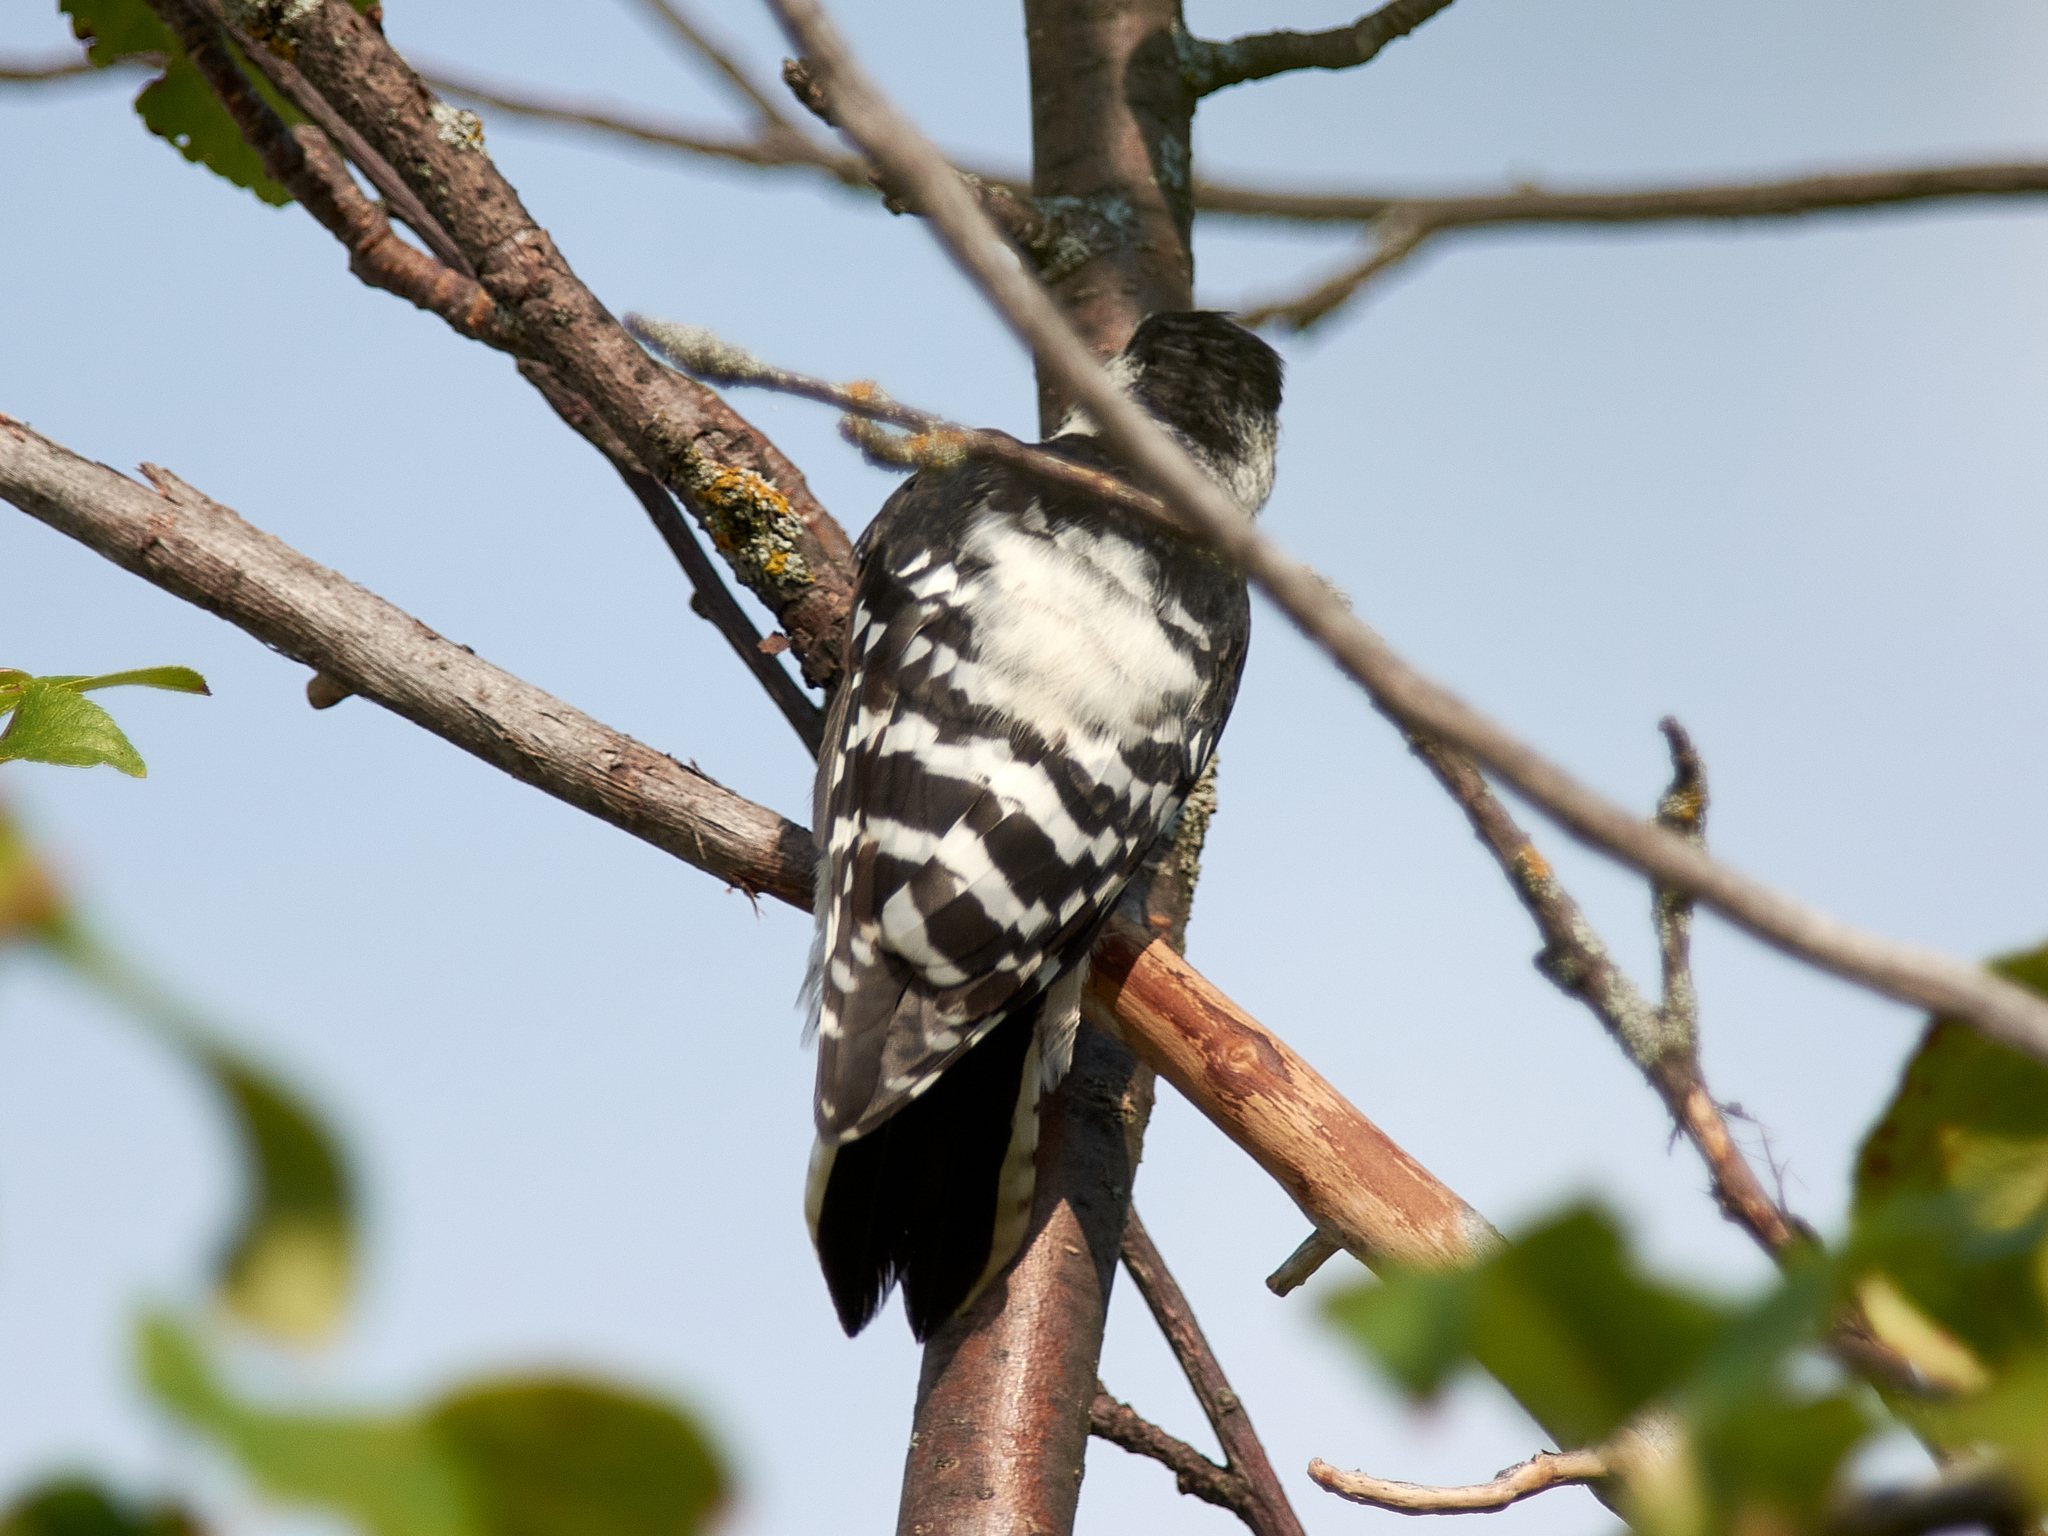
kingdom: Animalia
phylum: Chordata
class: Aves
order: Piciformes
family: Picidae
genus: Dryobates
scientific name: Dryobates minor
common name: Lesser spotted woodpecker
